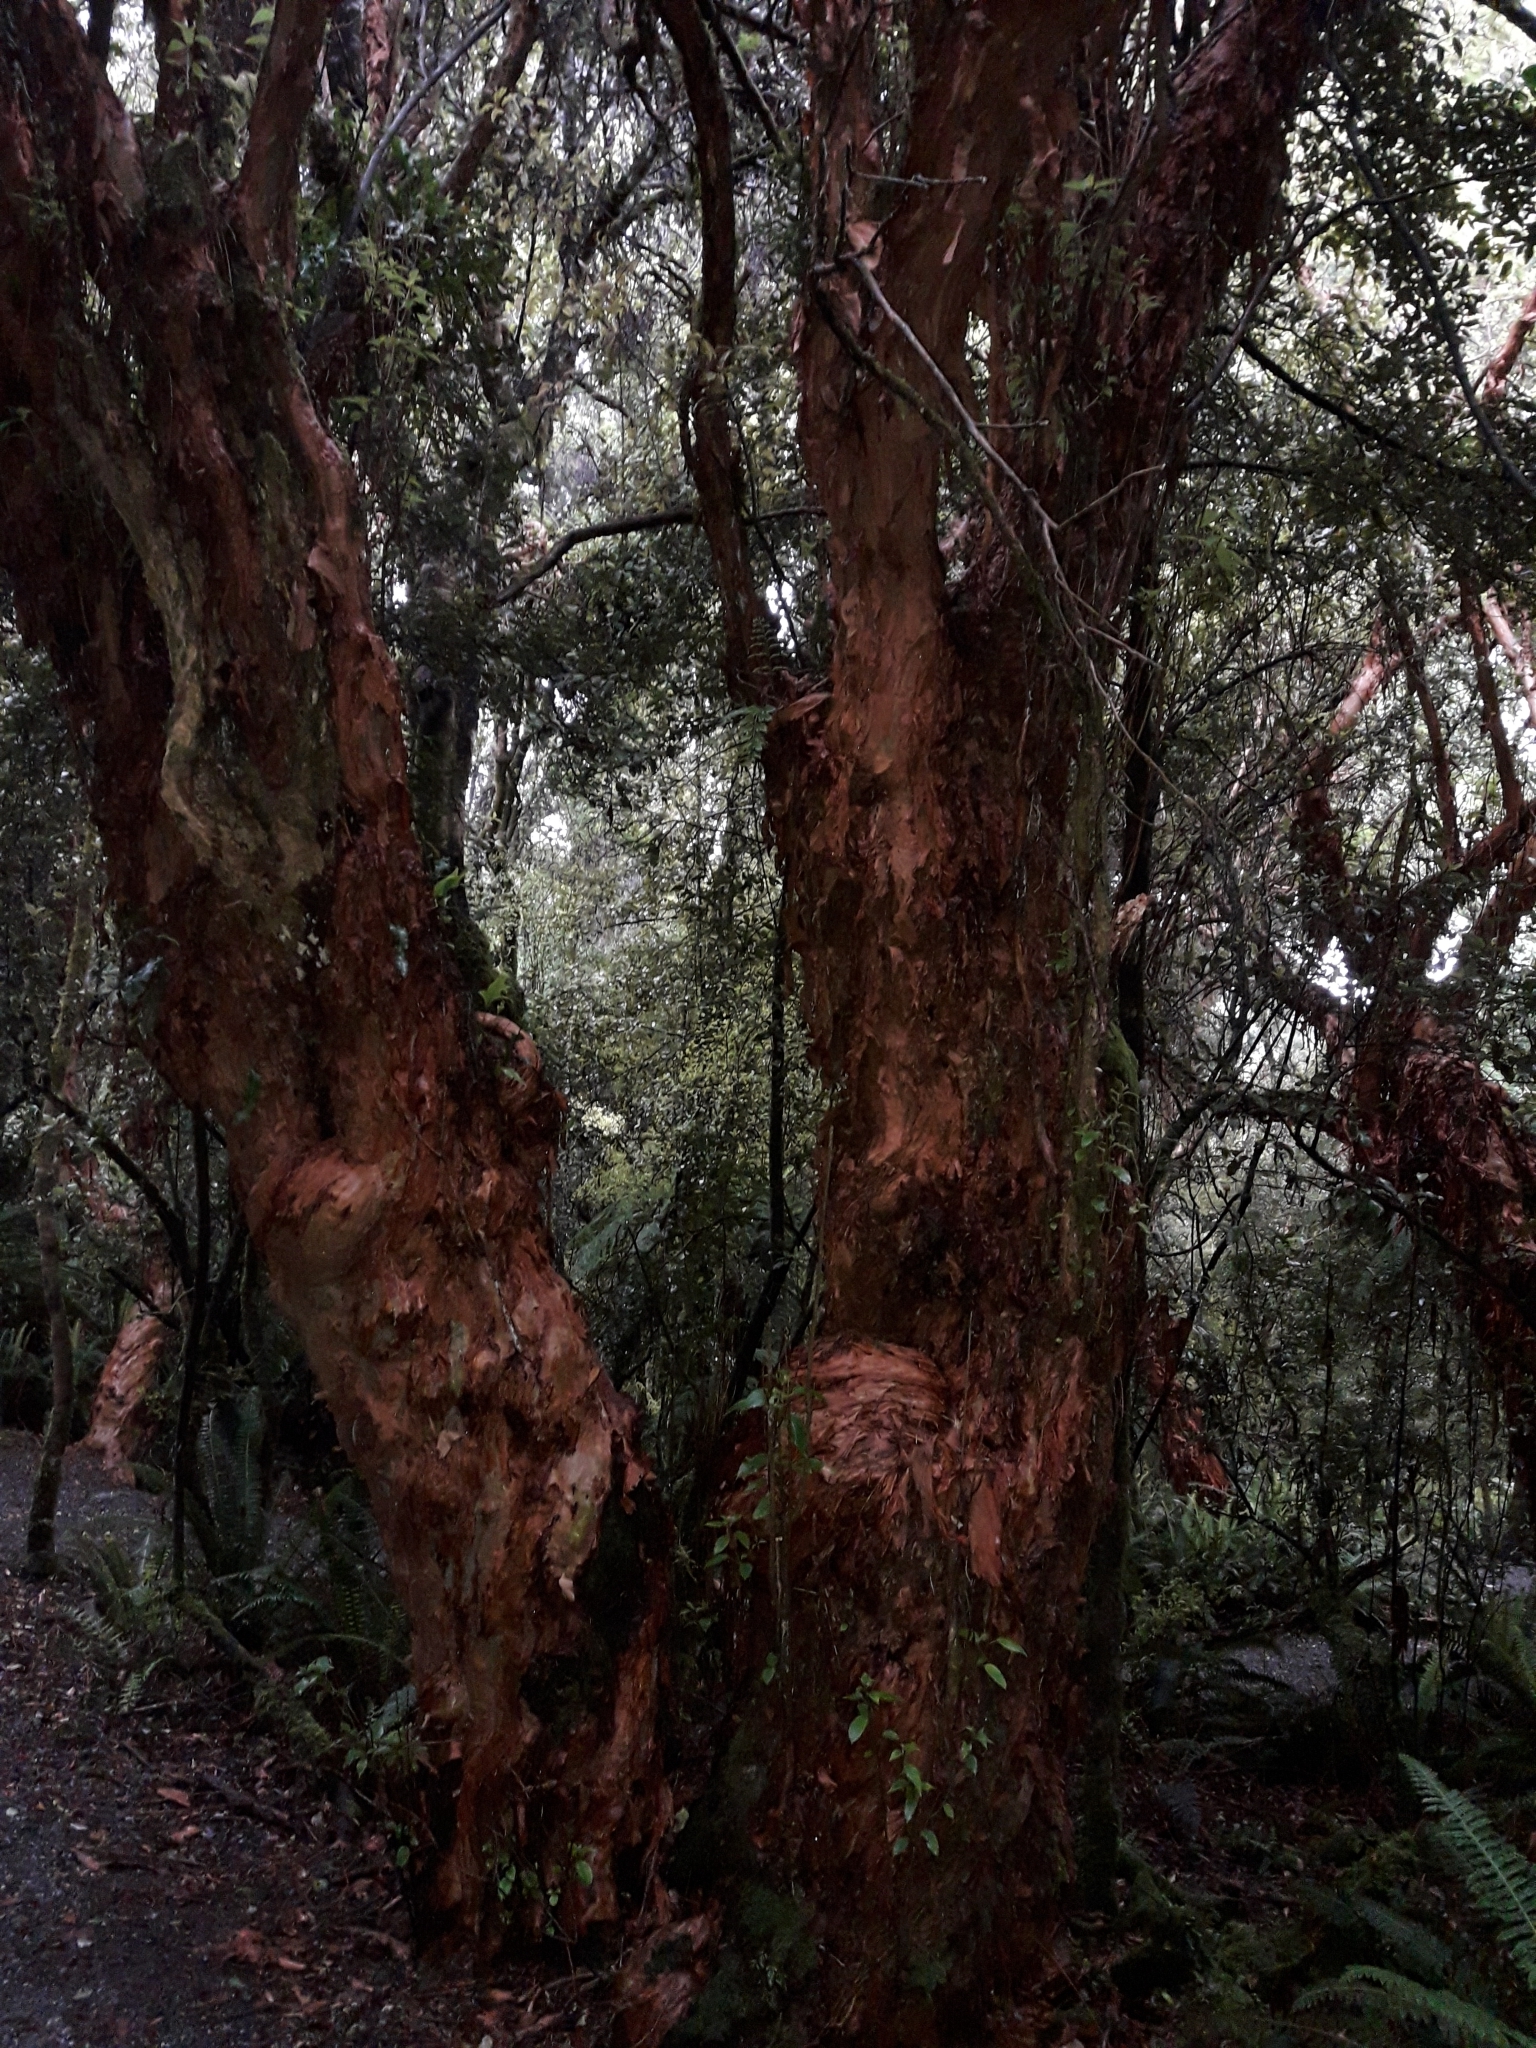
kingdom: Plantae
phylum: Tracheophyta
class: Magnoliopsida
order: Myrtales
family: Onagraceae
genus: Fuchsia
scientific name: Fuchsia excorticata
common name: Tree fuchsia
